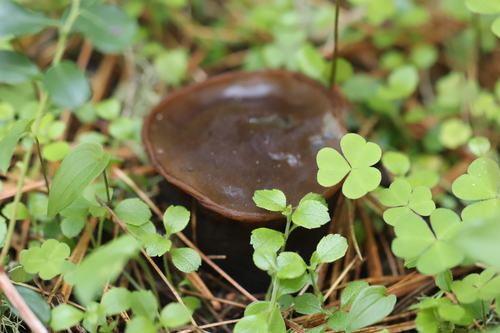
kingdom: Fungi
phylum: Ascomycota
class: Pezizomycetes
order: Pezizales
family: Sarcosomataceae
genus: Sarcosoma
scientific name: Sarcosoma globosum
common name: Charred-pancake cup
